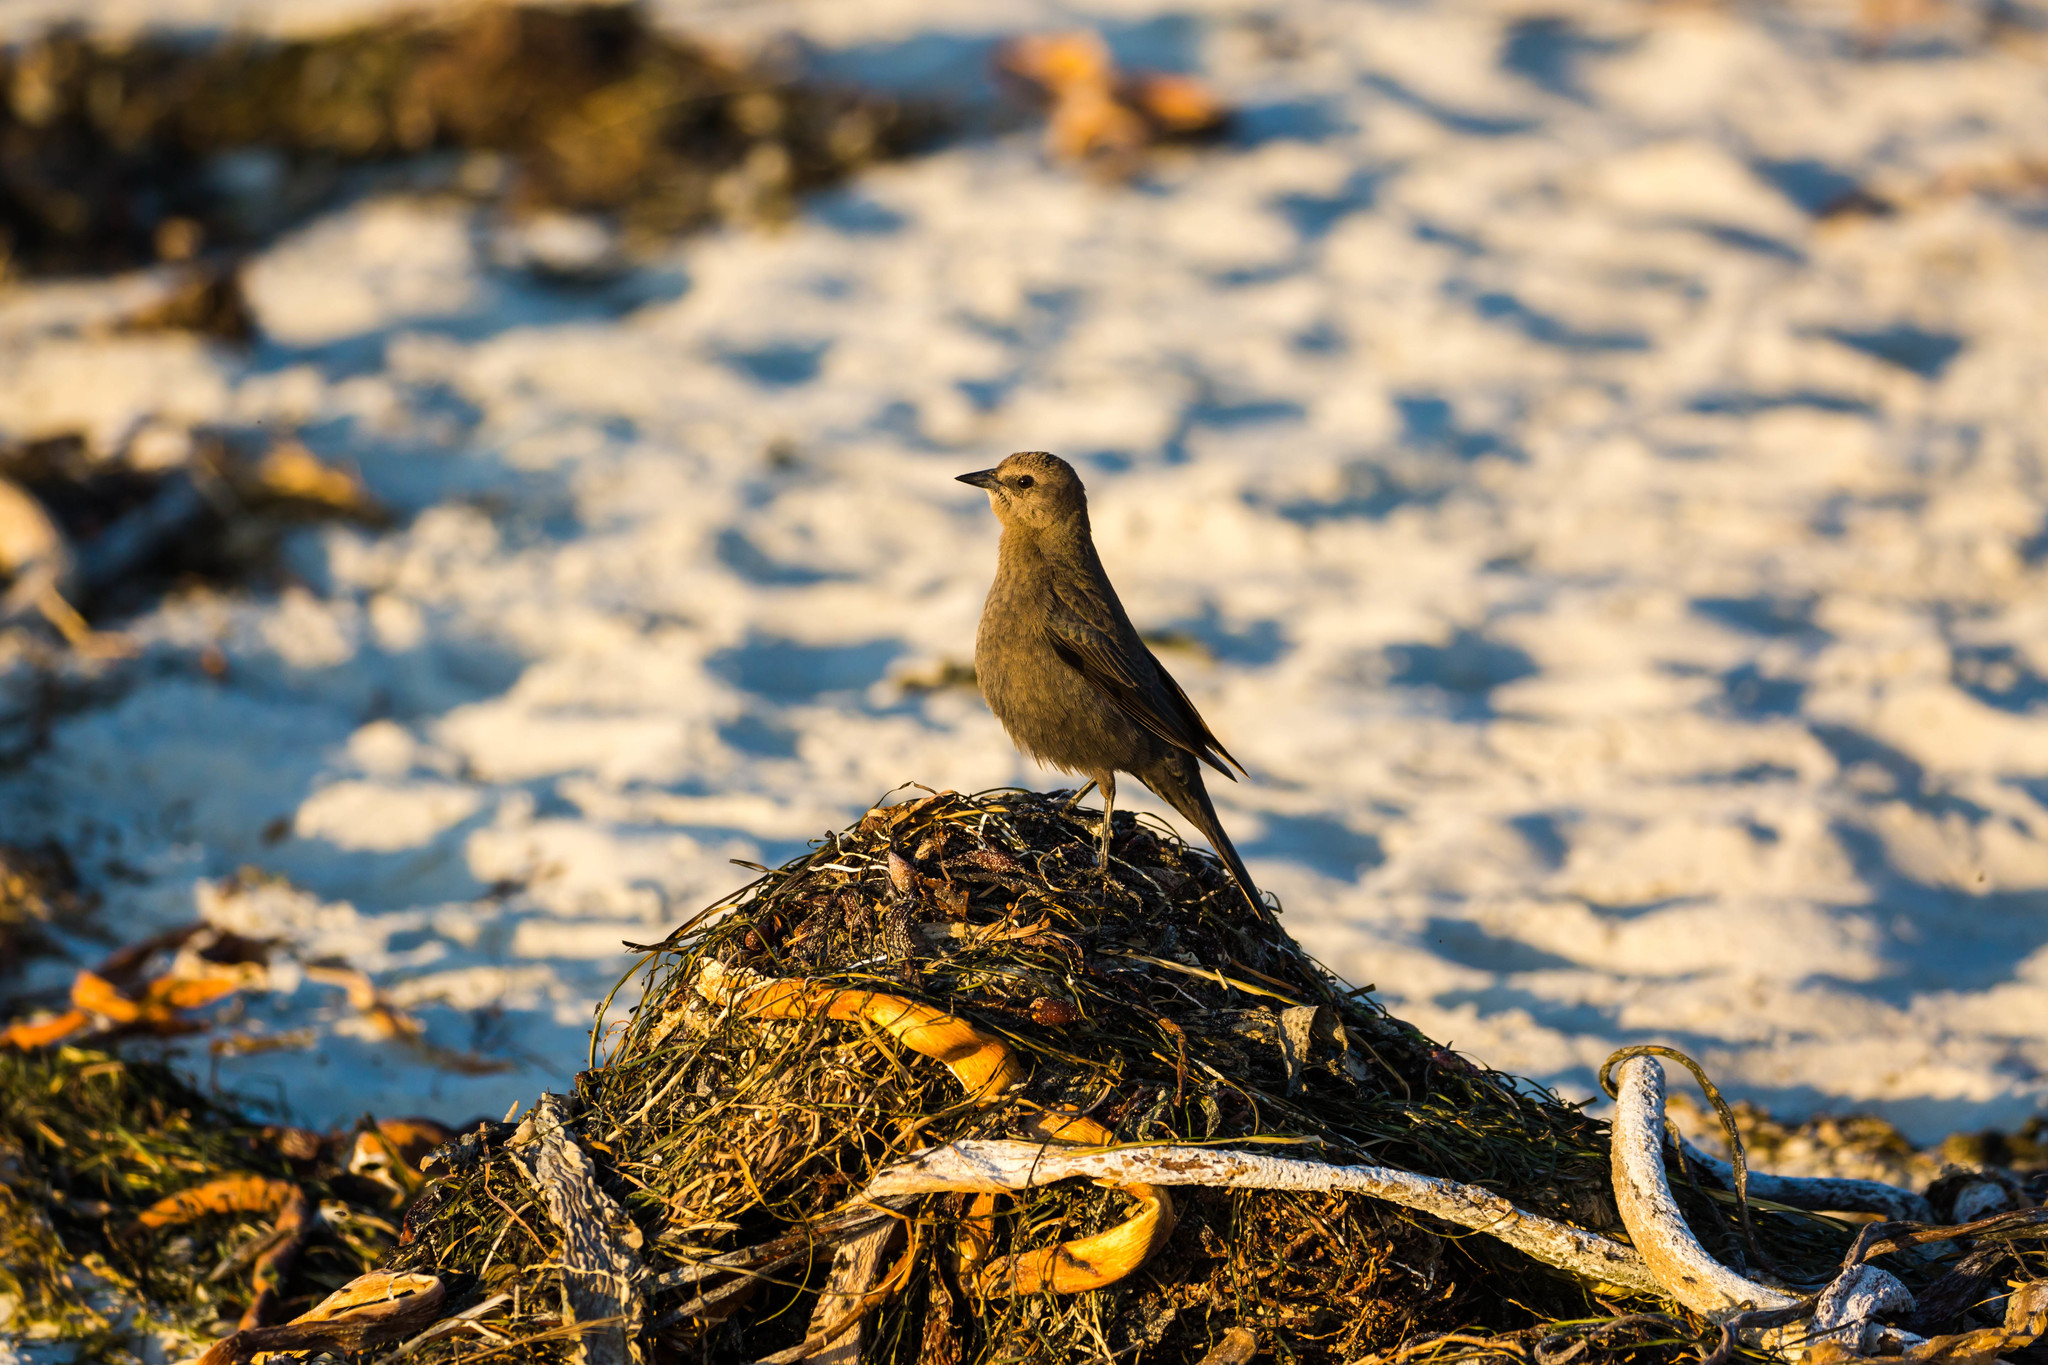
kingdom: Animalia
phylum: Chordata
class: Aves
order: Passeriformes
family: Icteridae
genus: Euphagus
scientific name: Euphagus cyanocephalus
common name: Brewer's blackbird
